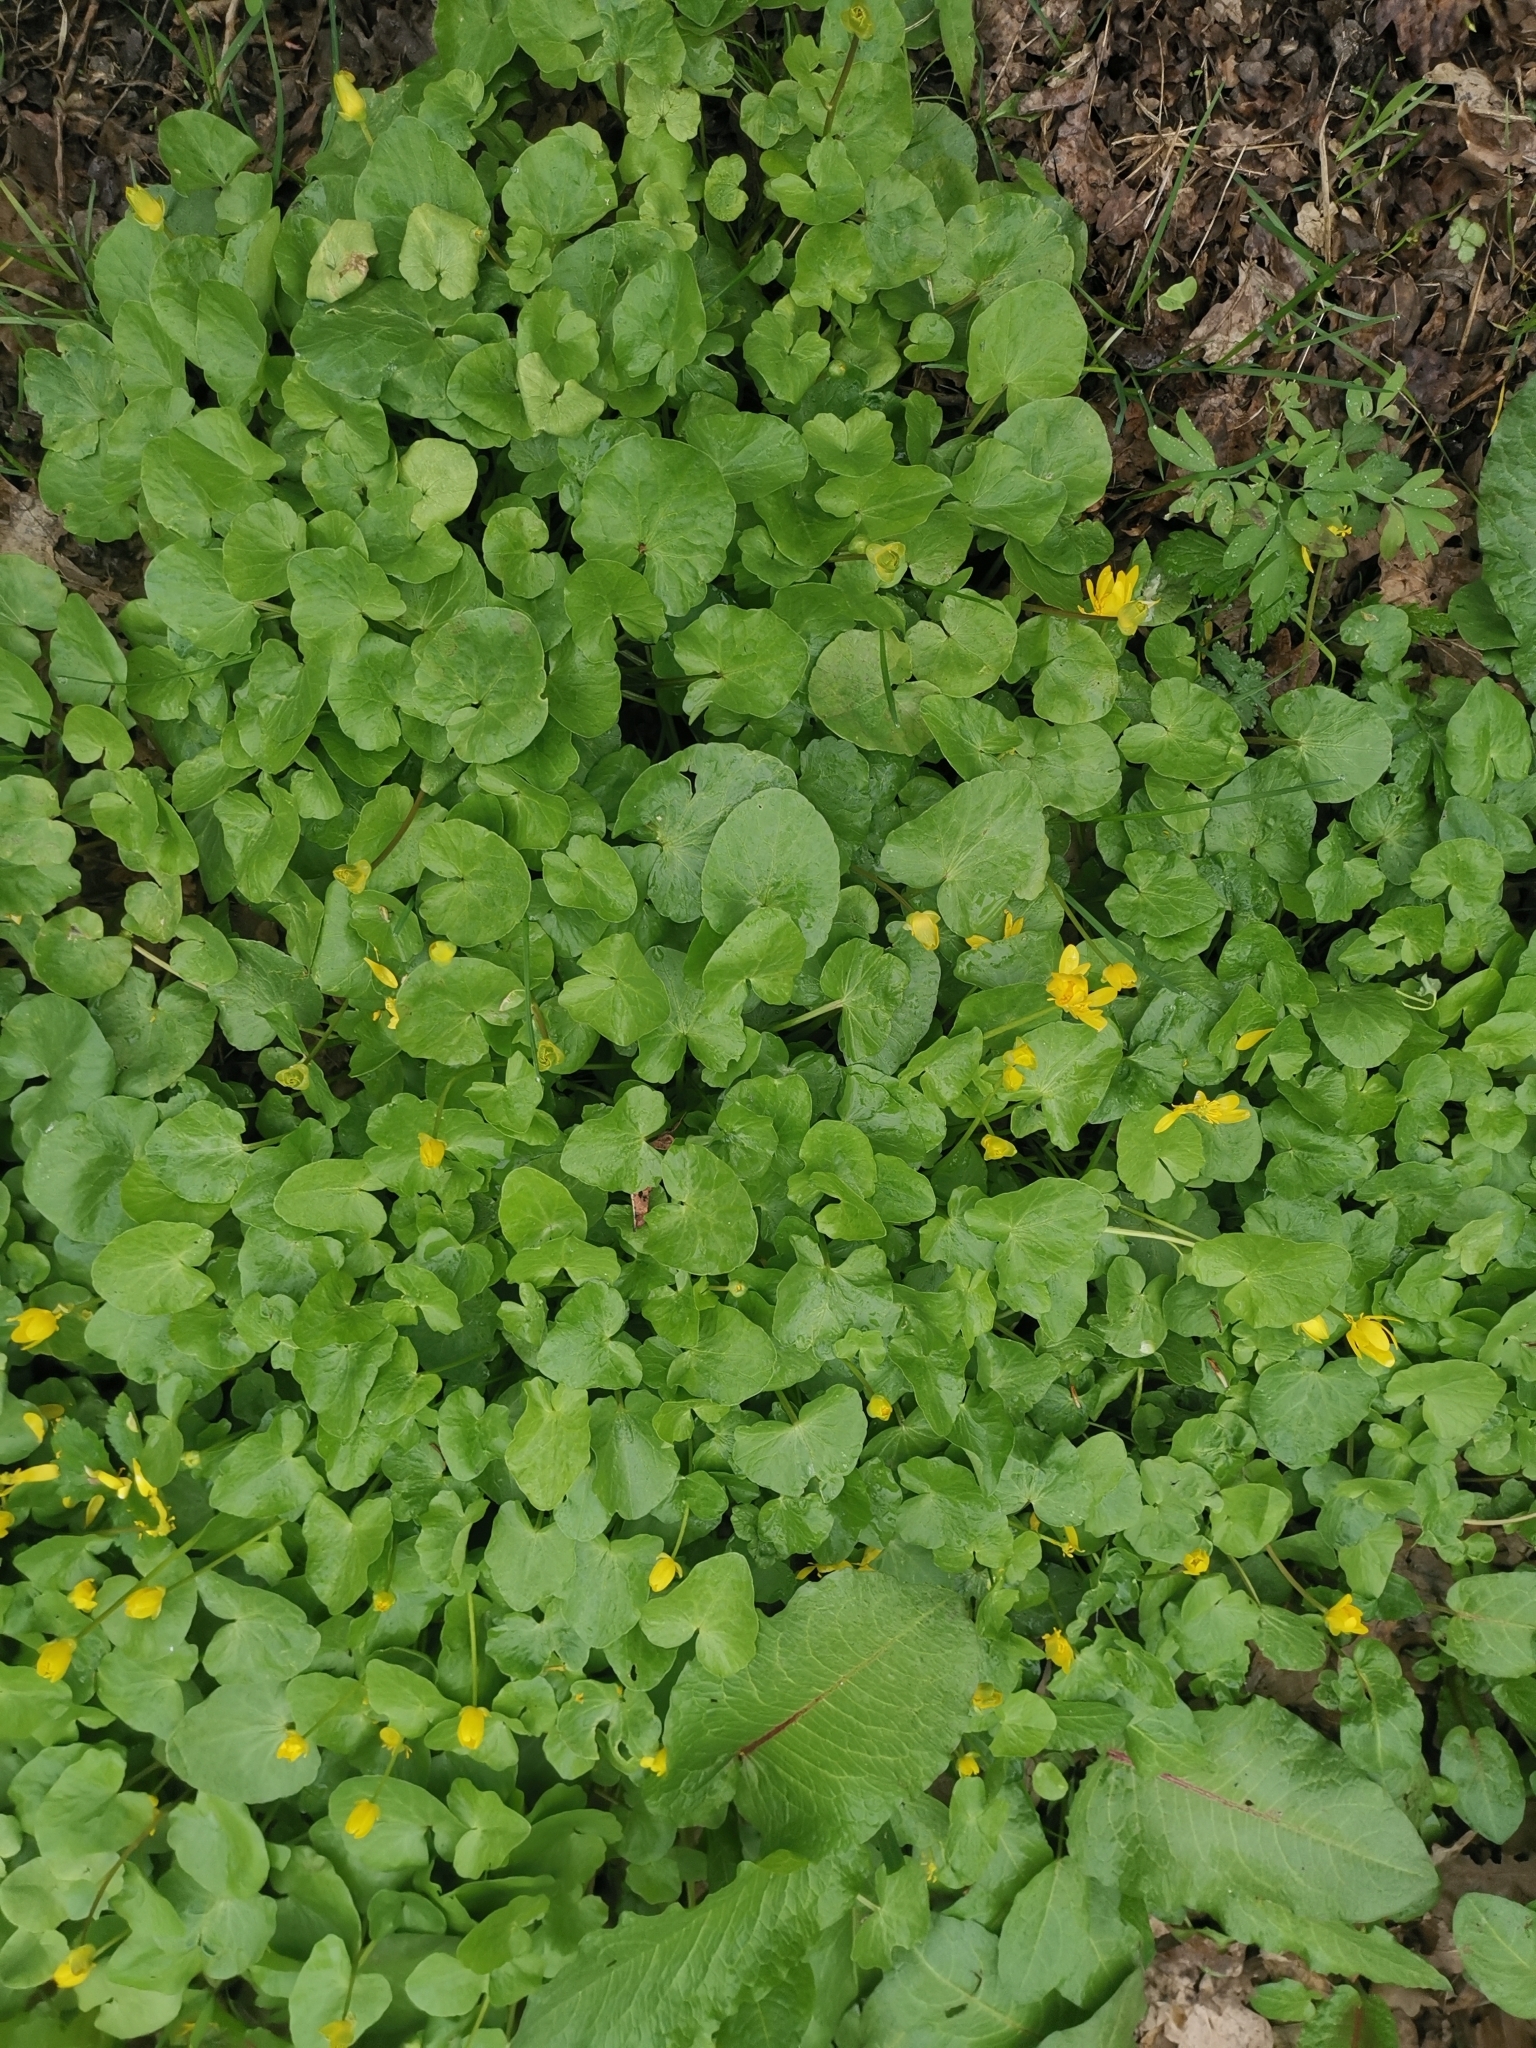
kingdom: Plantae
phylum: Tracheophyta
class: Magnoliopsida
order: Ranunculales
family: Ranunculaceae
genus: Ficaria
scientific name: Ficaria verna
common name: Lesser celandine
